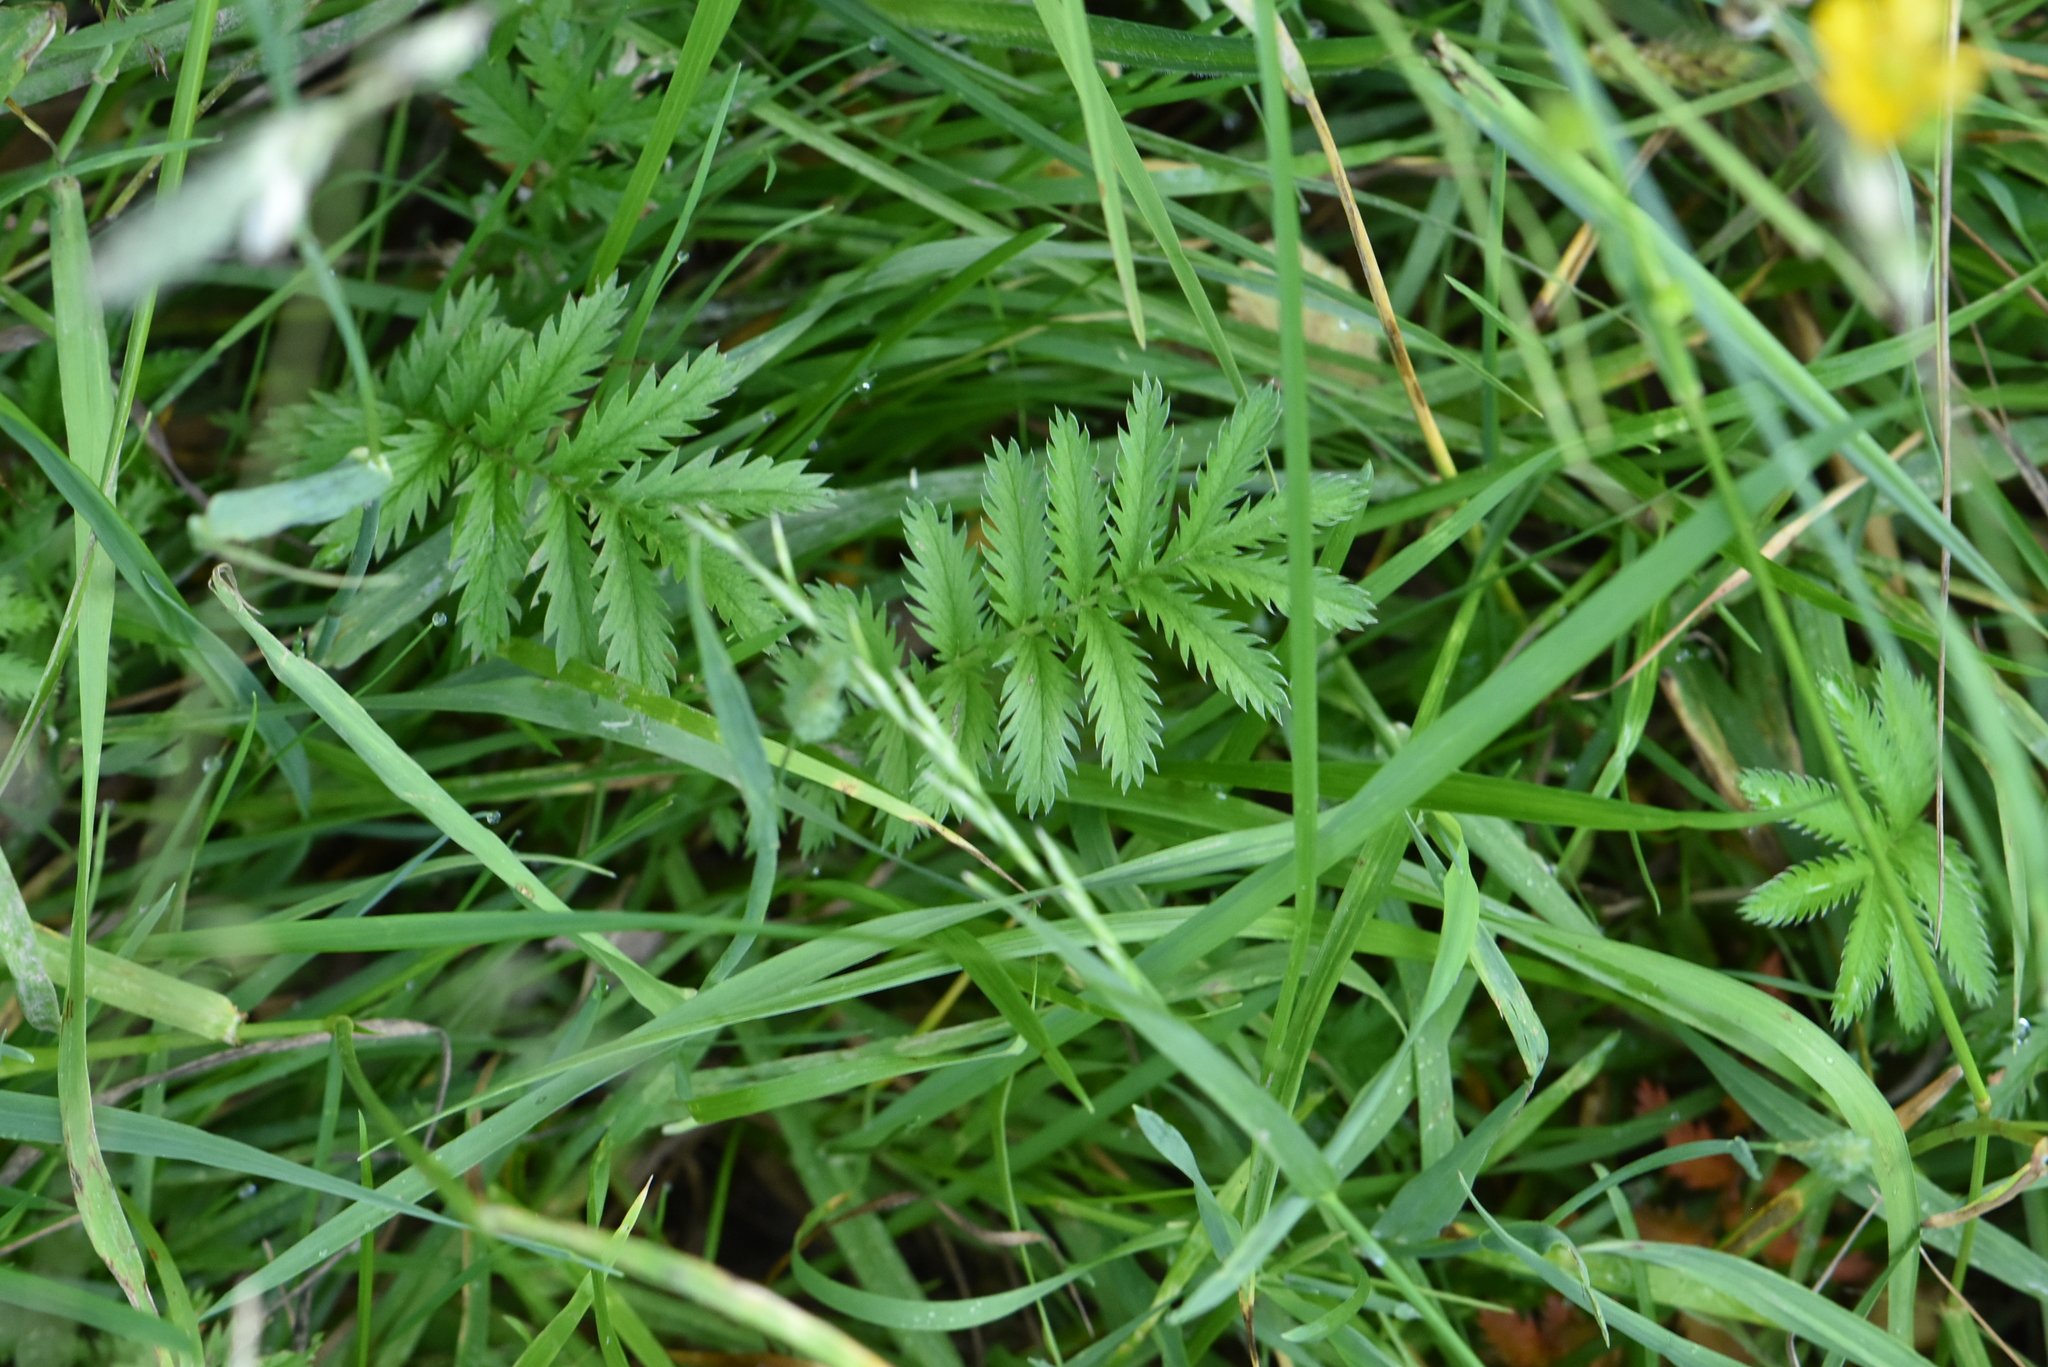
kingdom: Plantae
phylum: Tracheophyta
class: Magnoliopsida
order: Rosales
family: Rosaceae
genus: Argentina
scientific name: Argentina anserina
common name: Common silverweed
